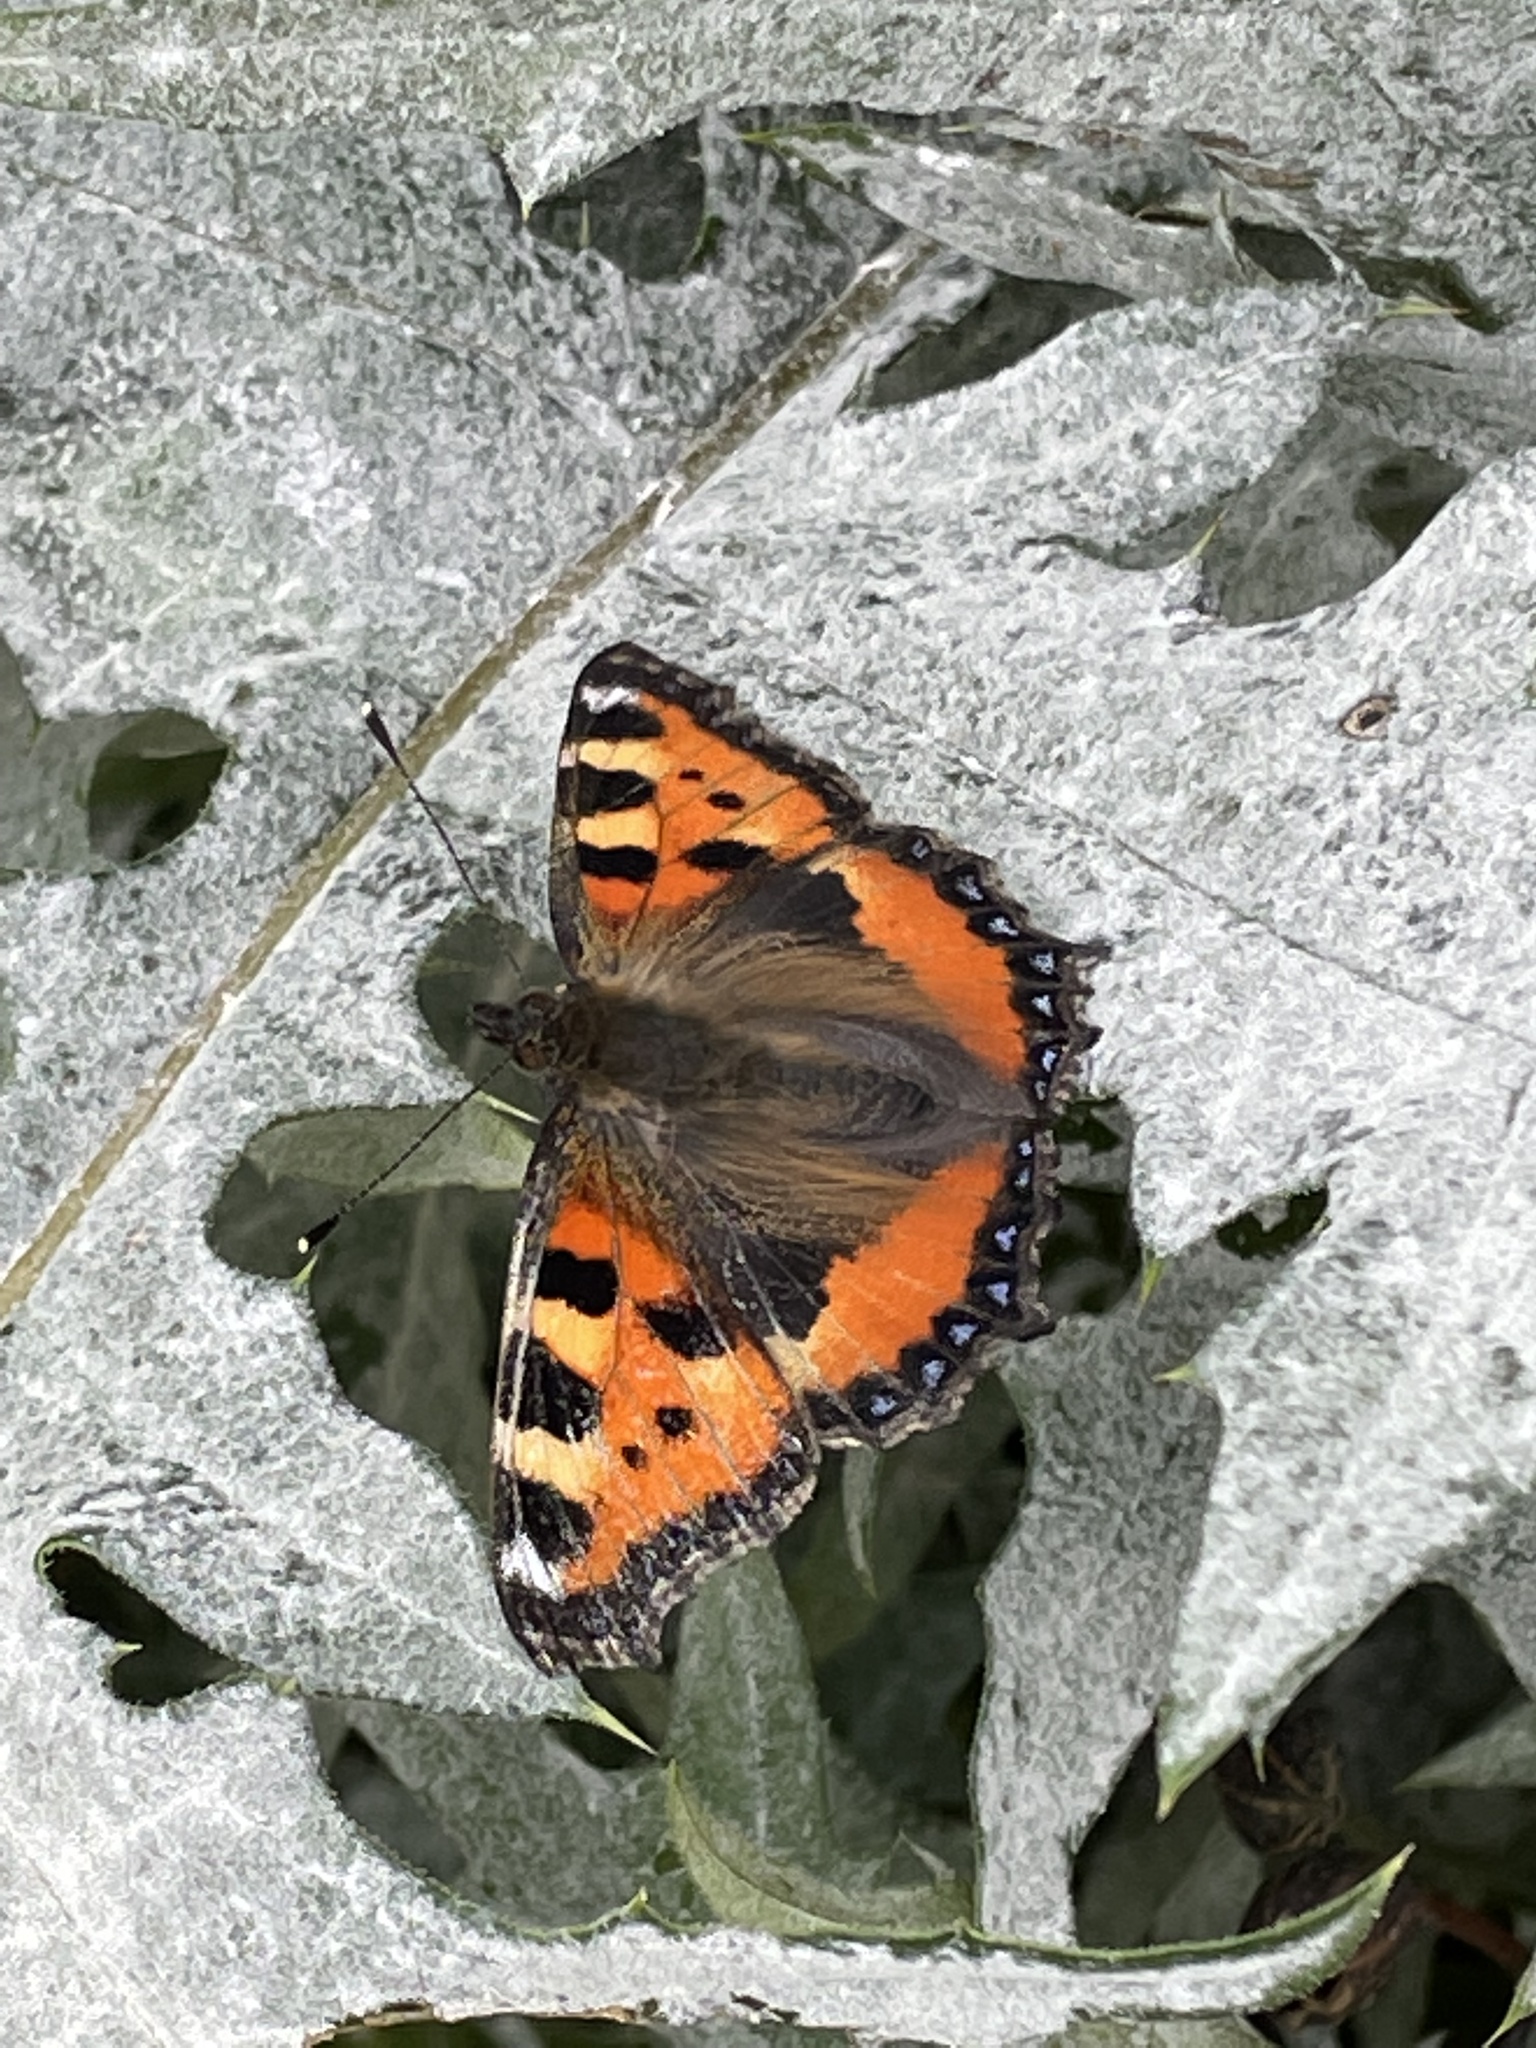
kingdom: Animalia
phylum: Arthropoda
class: Insecta
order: Lepidoptera
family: Nymphalidae
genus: Aglais
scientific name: Aglais urticae
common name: Small tortoiseshell
